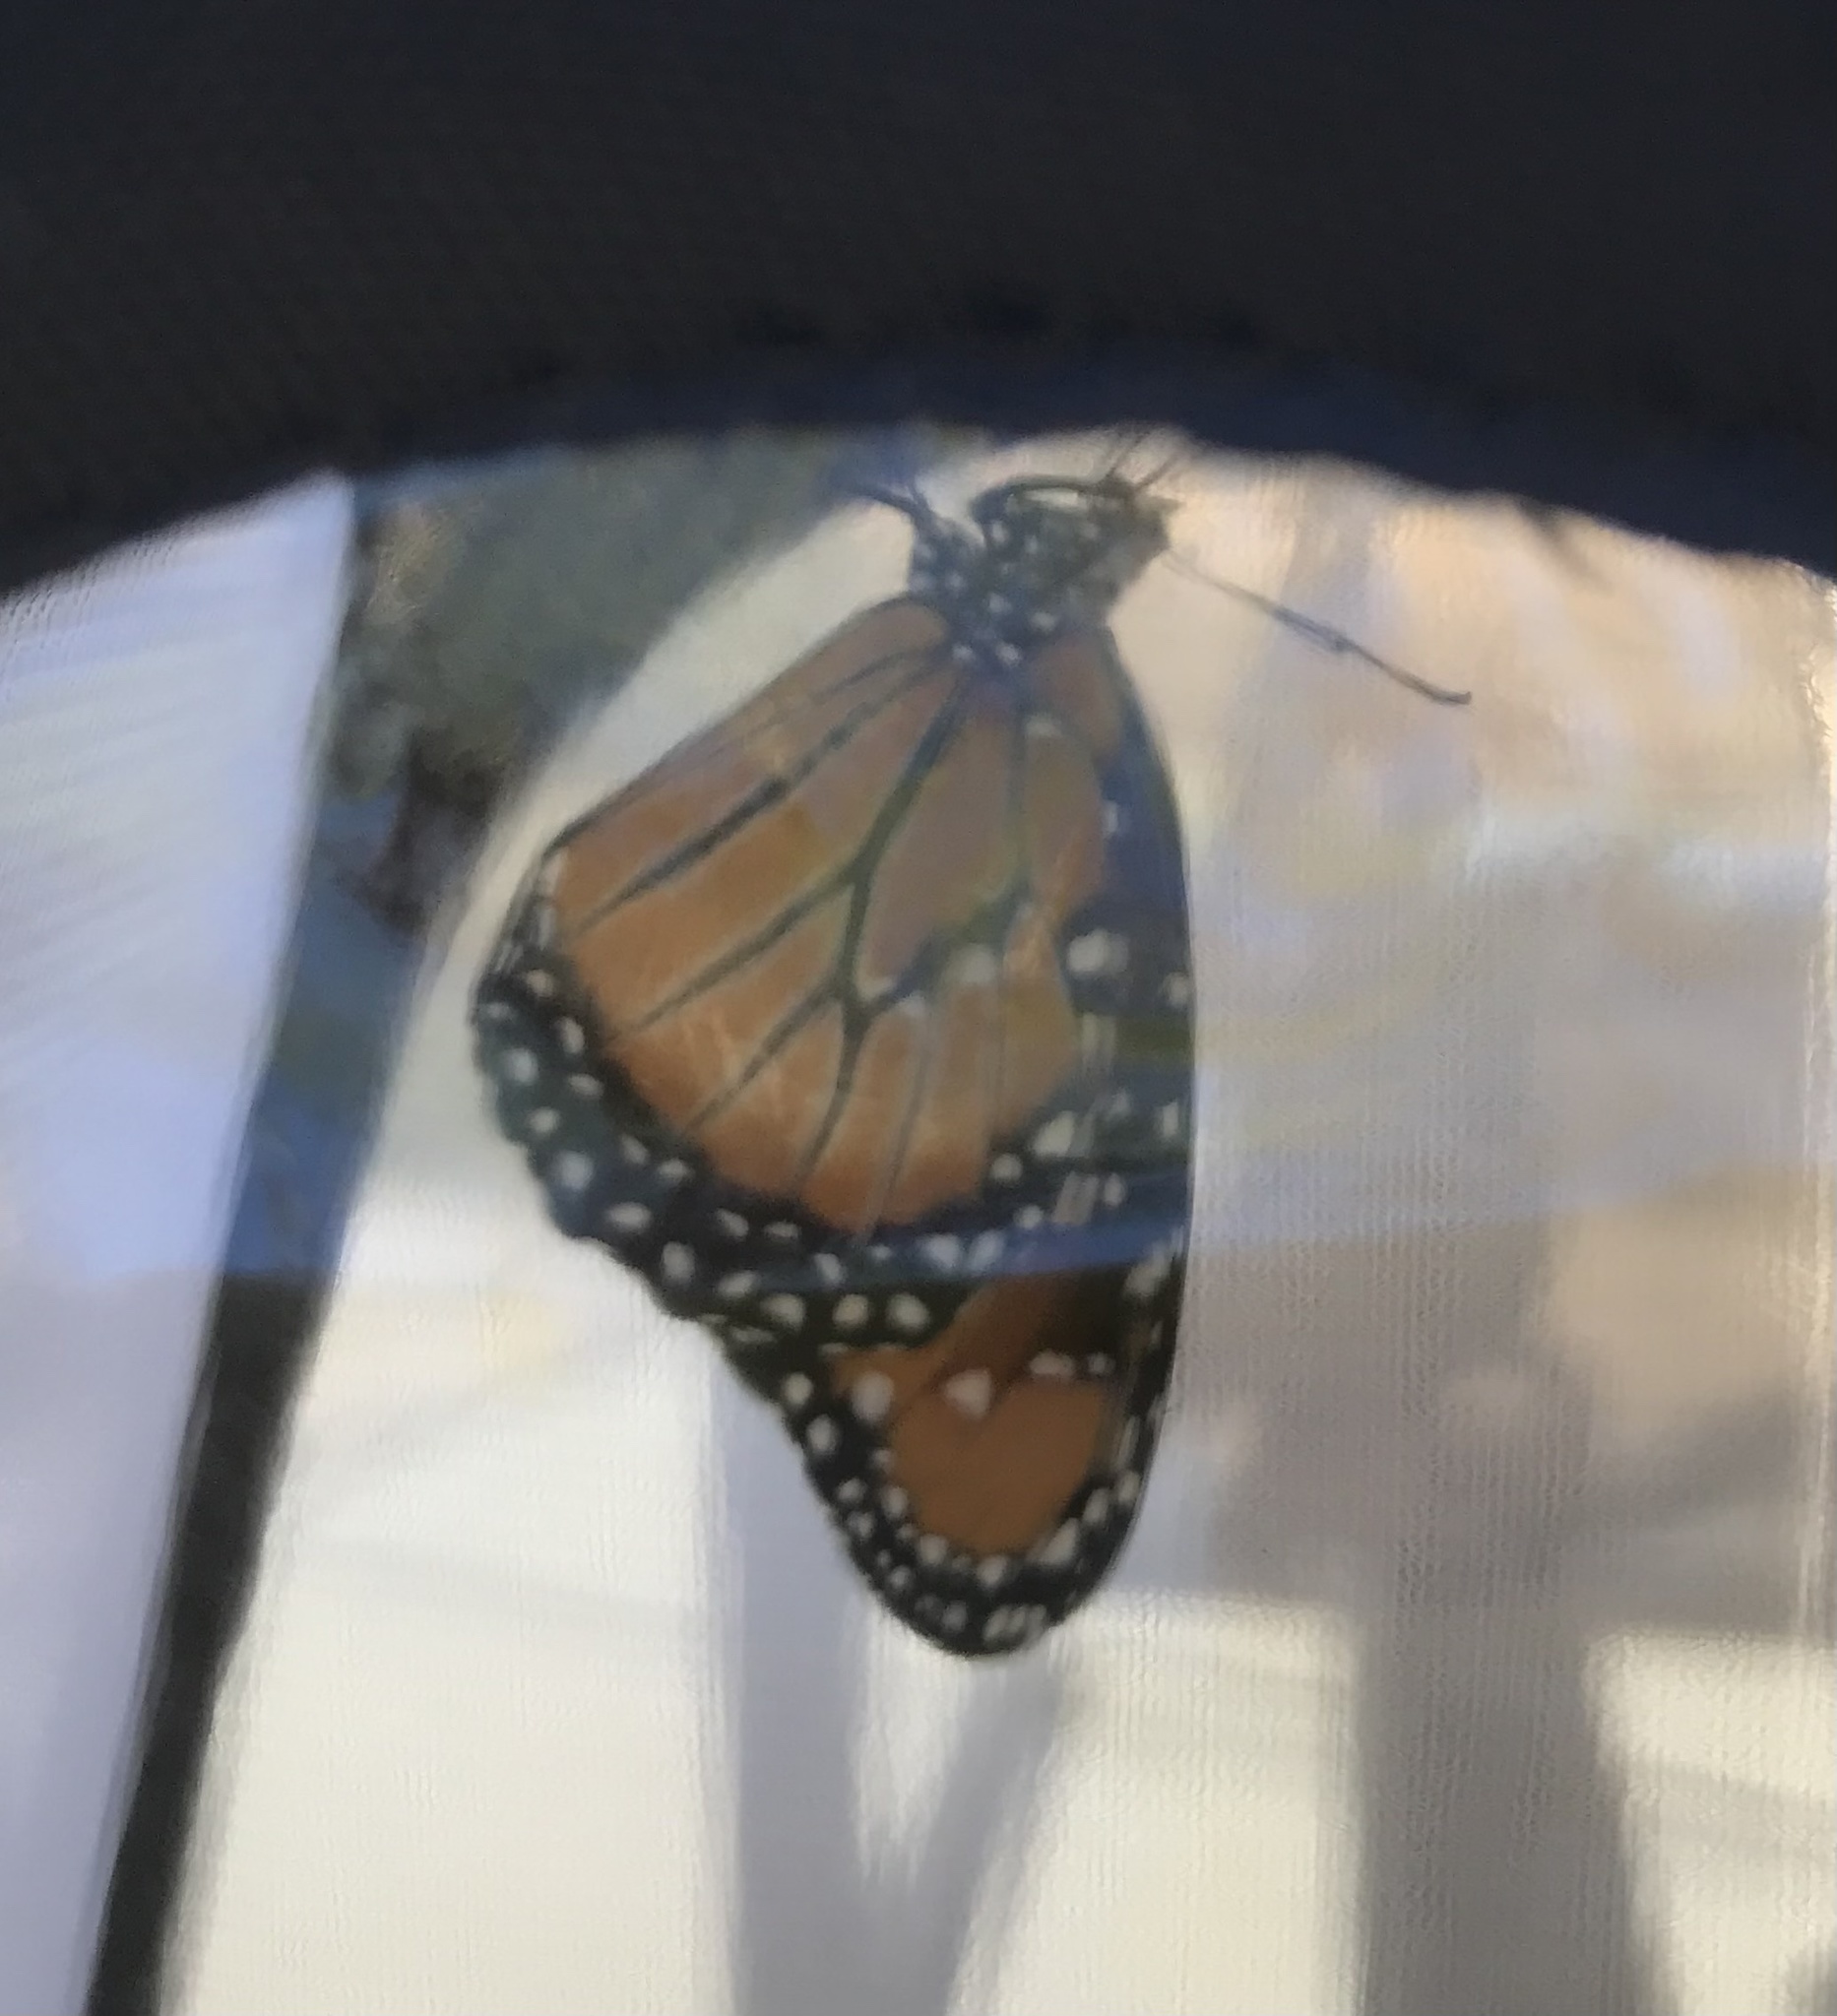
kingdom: Animalia
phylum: Arthropoda
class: Insecta
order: Lepidoptera
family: Nymphalidae
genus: Danaus
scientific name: Danaus gilippus
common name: Queen
